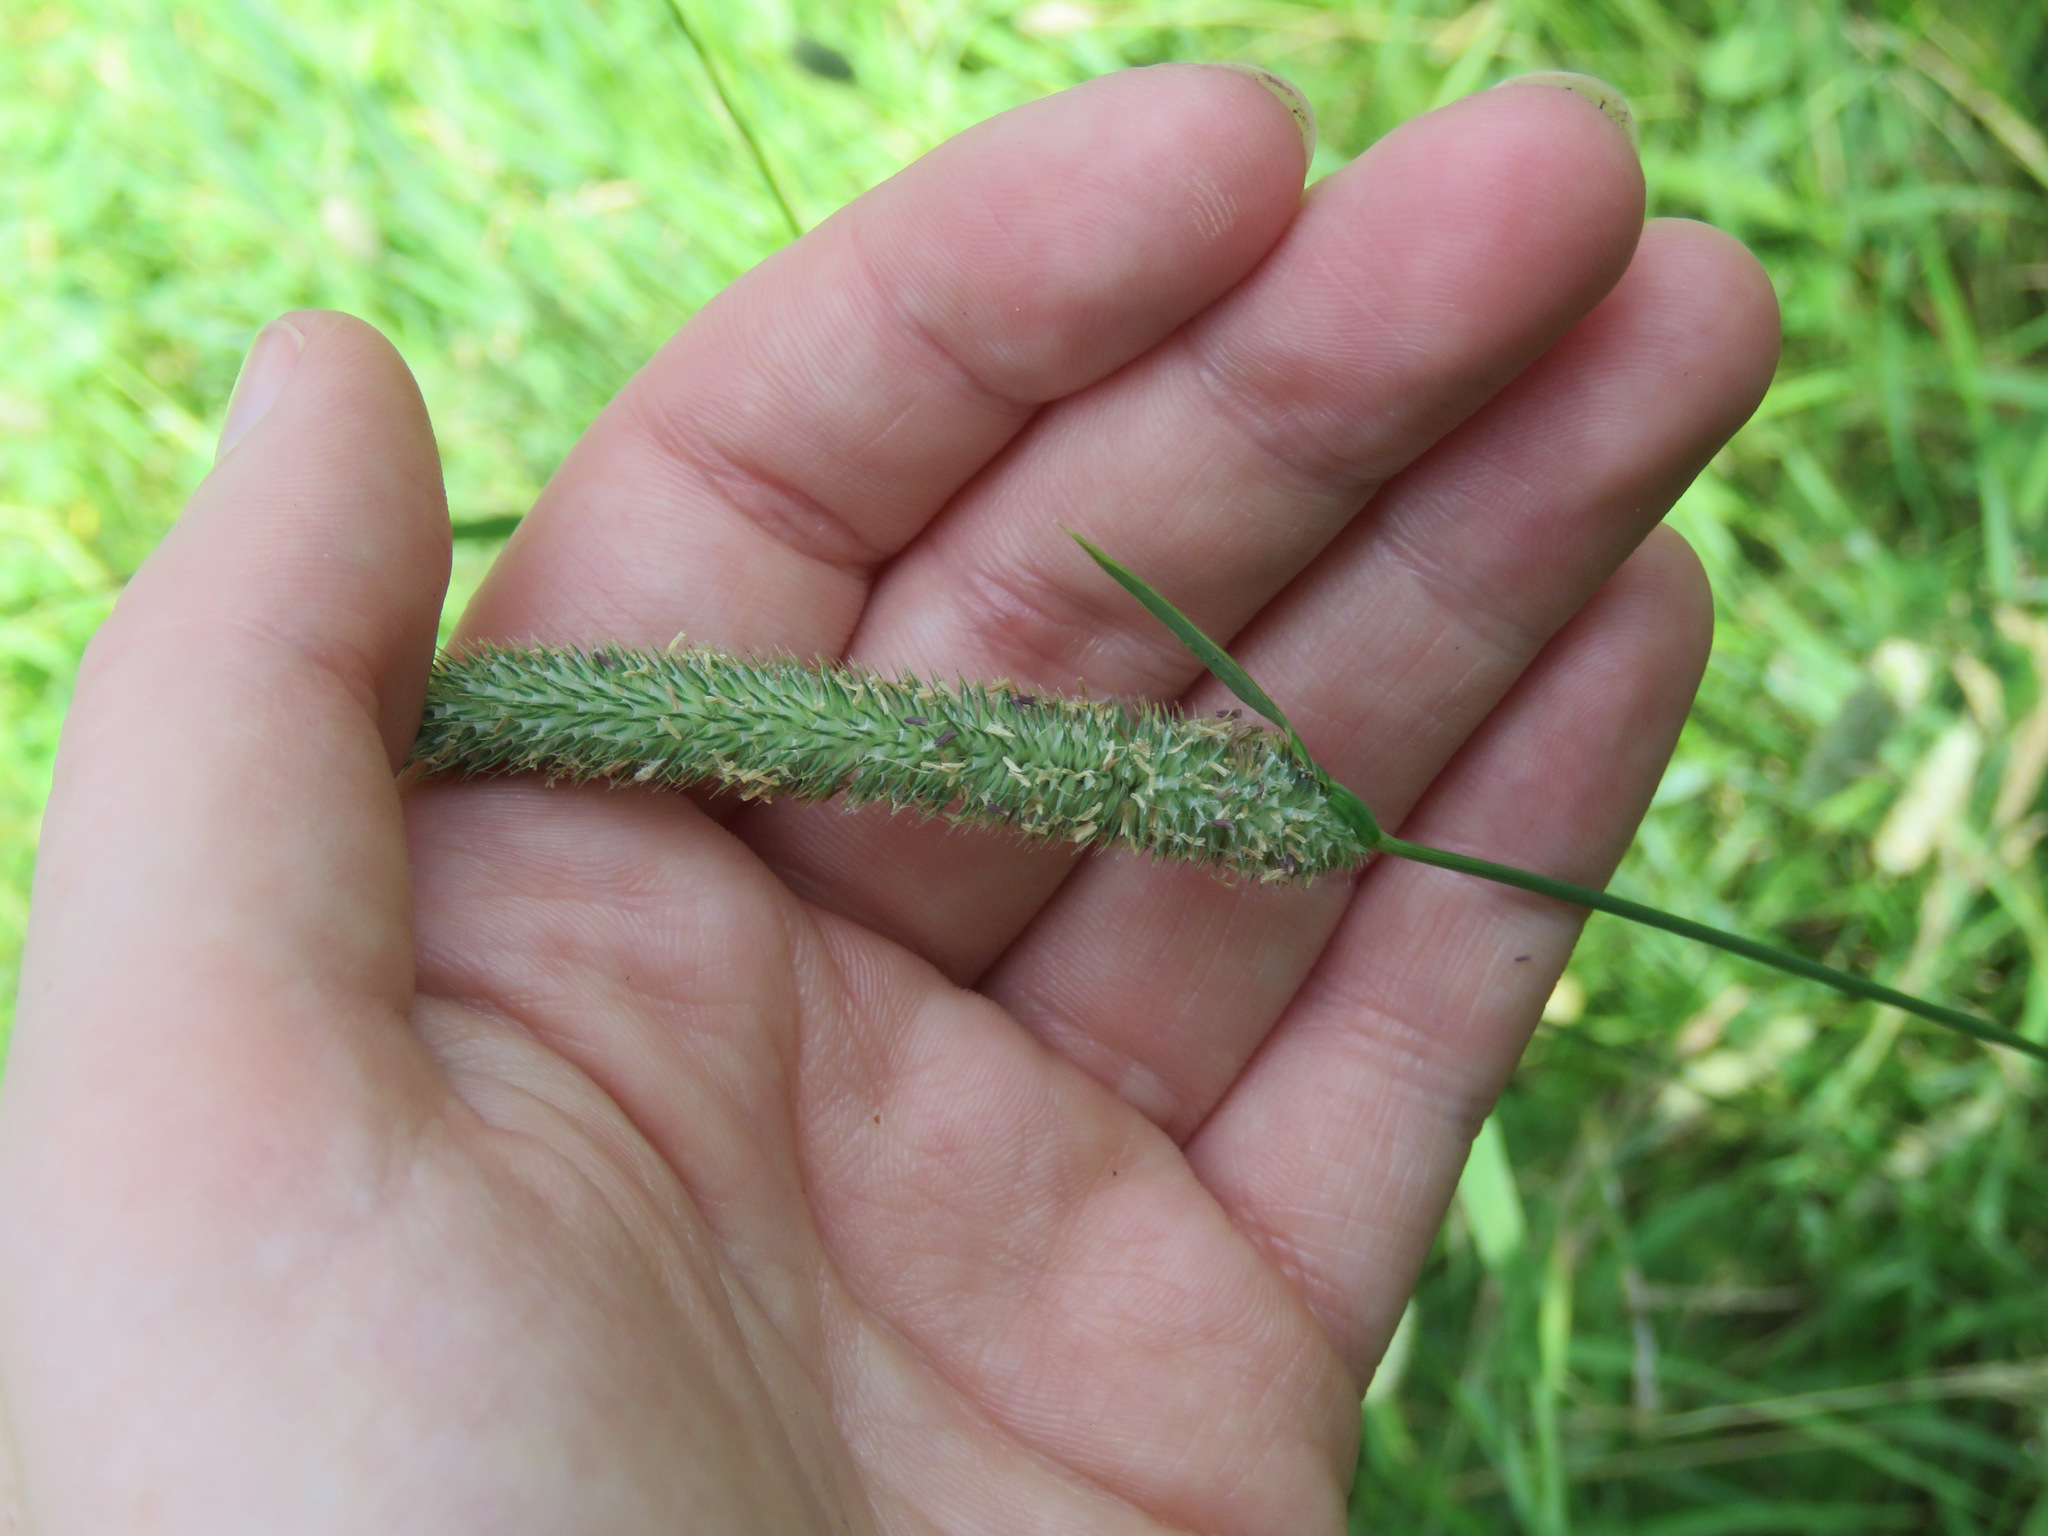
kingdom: Plantae
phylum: Tracheophyta
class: Liliopsida
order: Poales
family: Poaceae
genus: Phleum
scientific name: Phleum pratense
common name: Timothy grass
